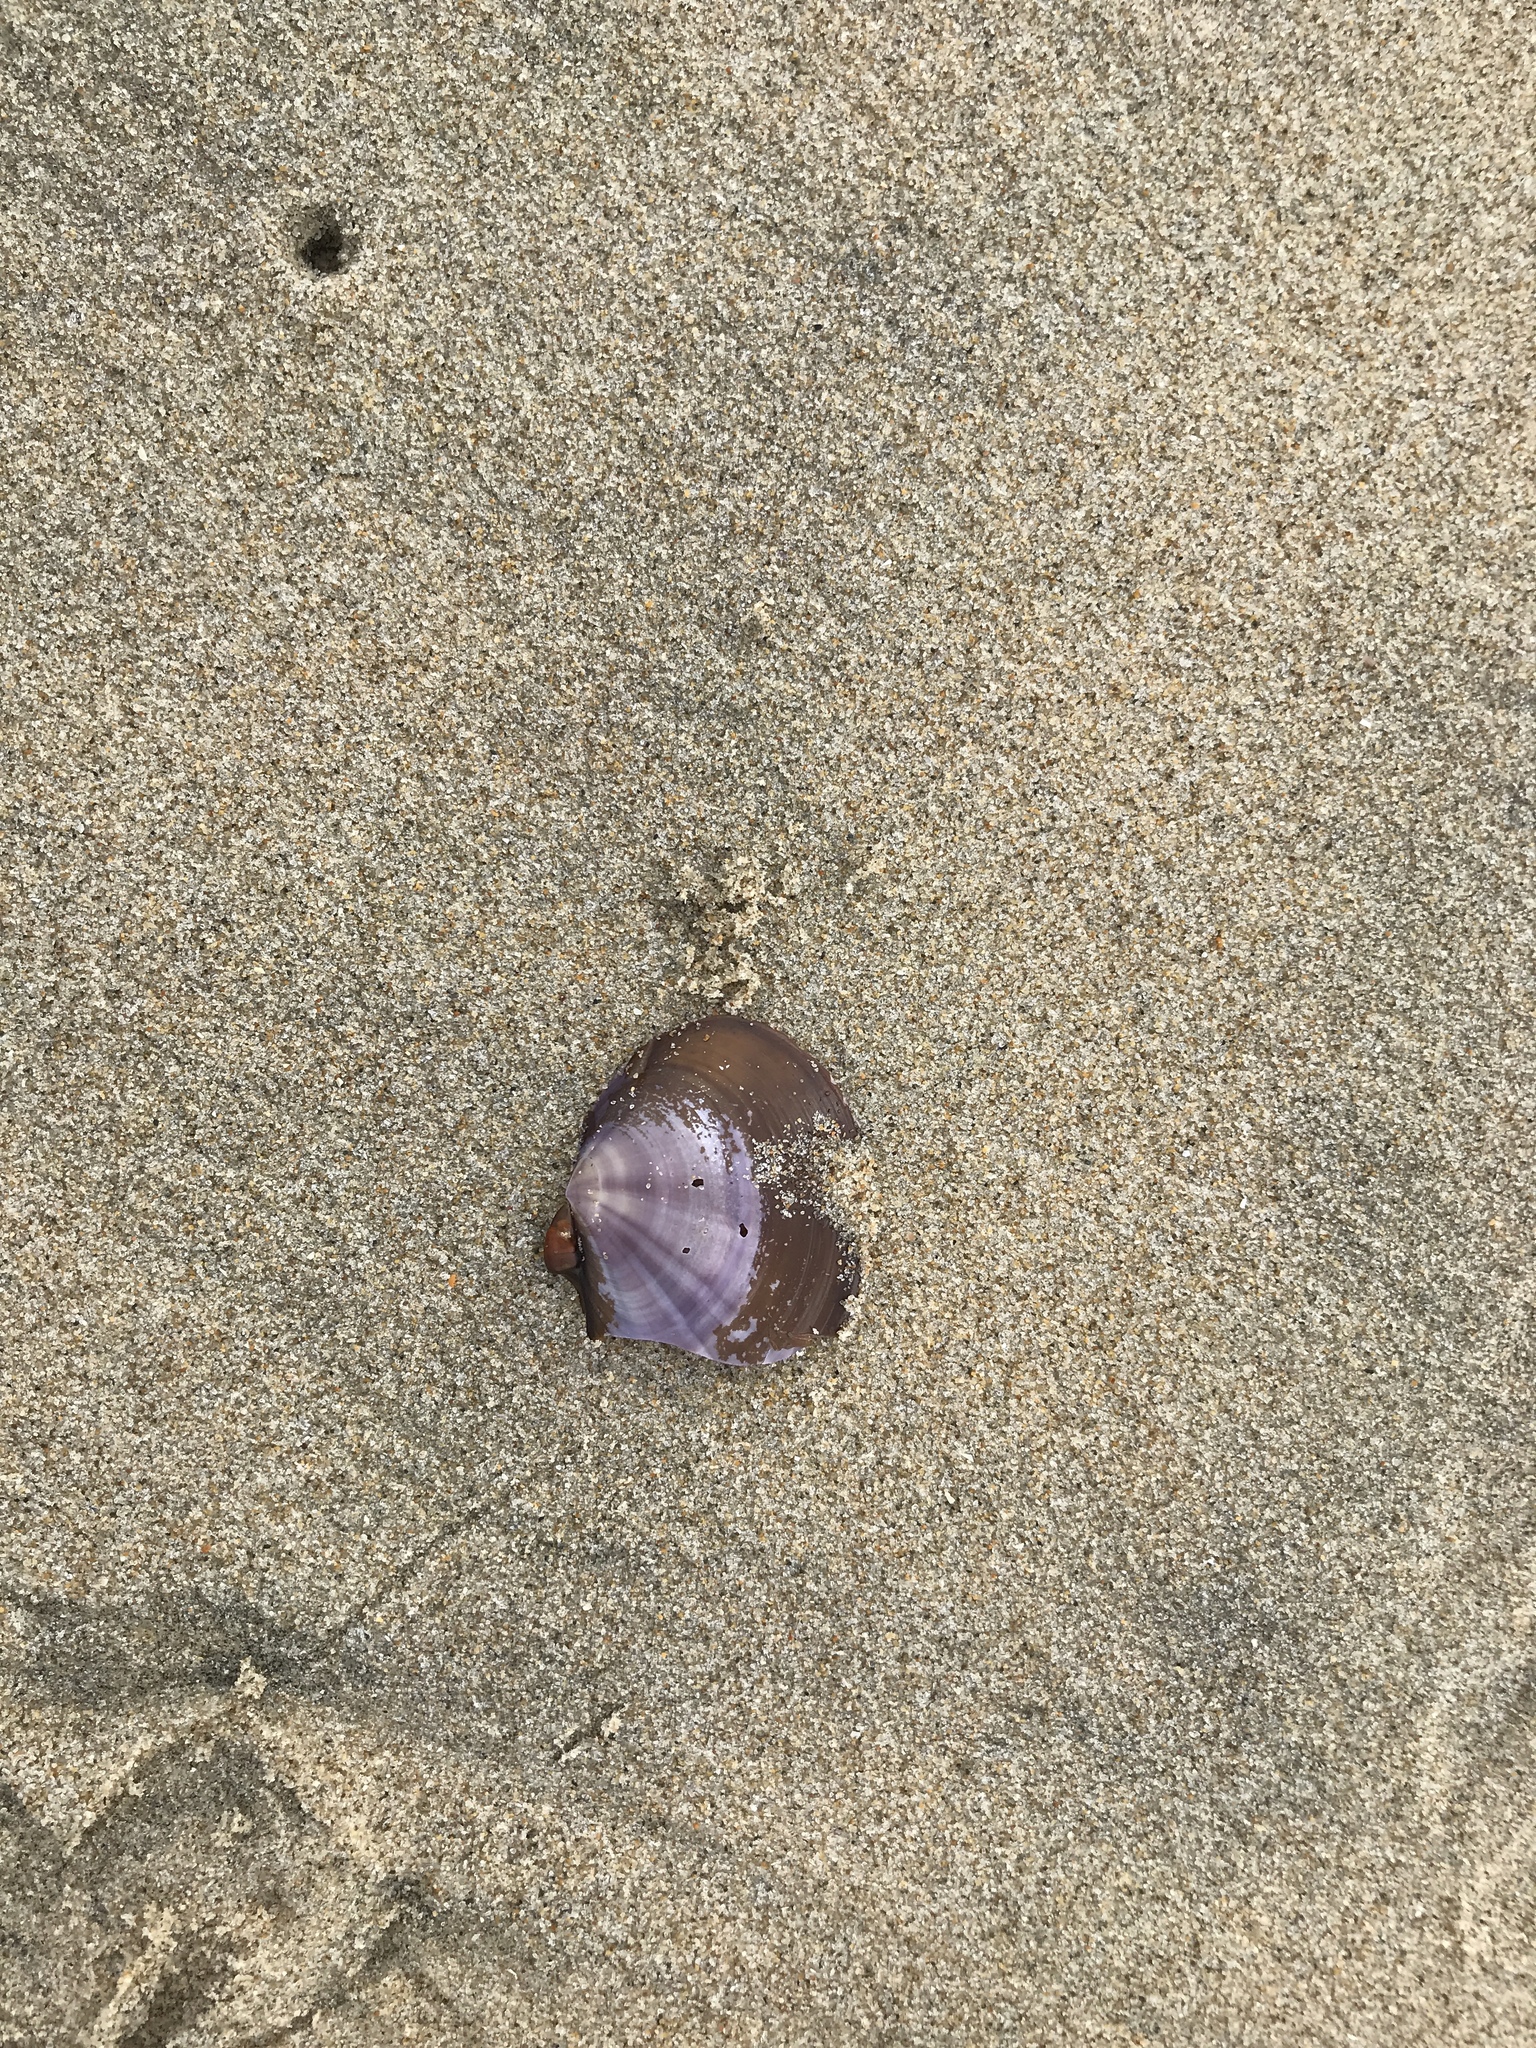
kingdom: Animalia
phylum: Mollusca
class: Bivalvia
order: Cardiida
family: Psammobiidae
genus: Nuttallia
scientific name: Nuttallia nuttallii
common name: California mahogany-clam
